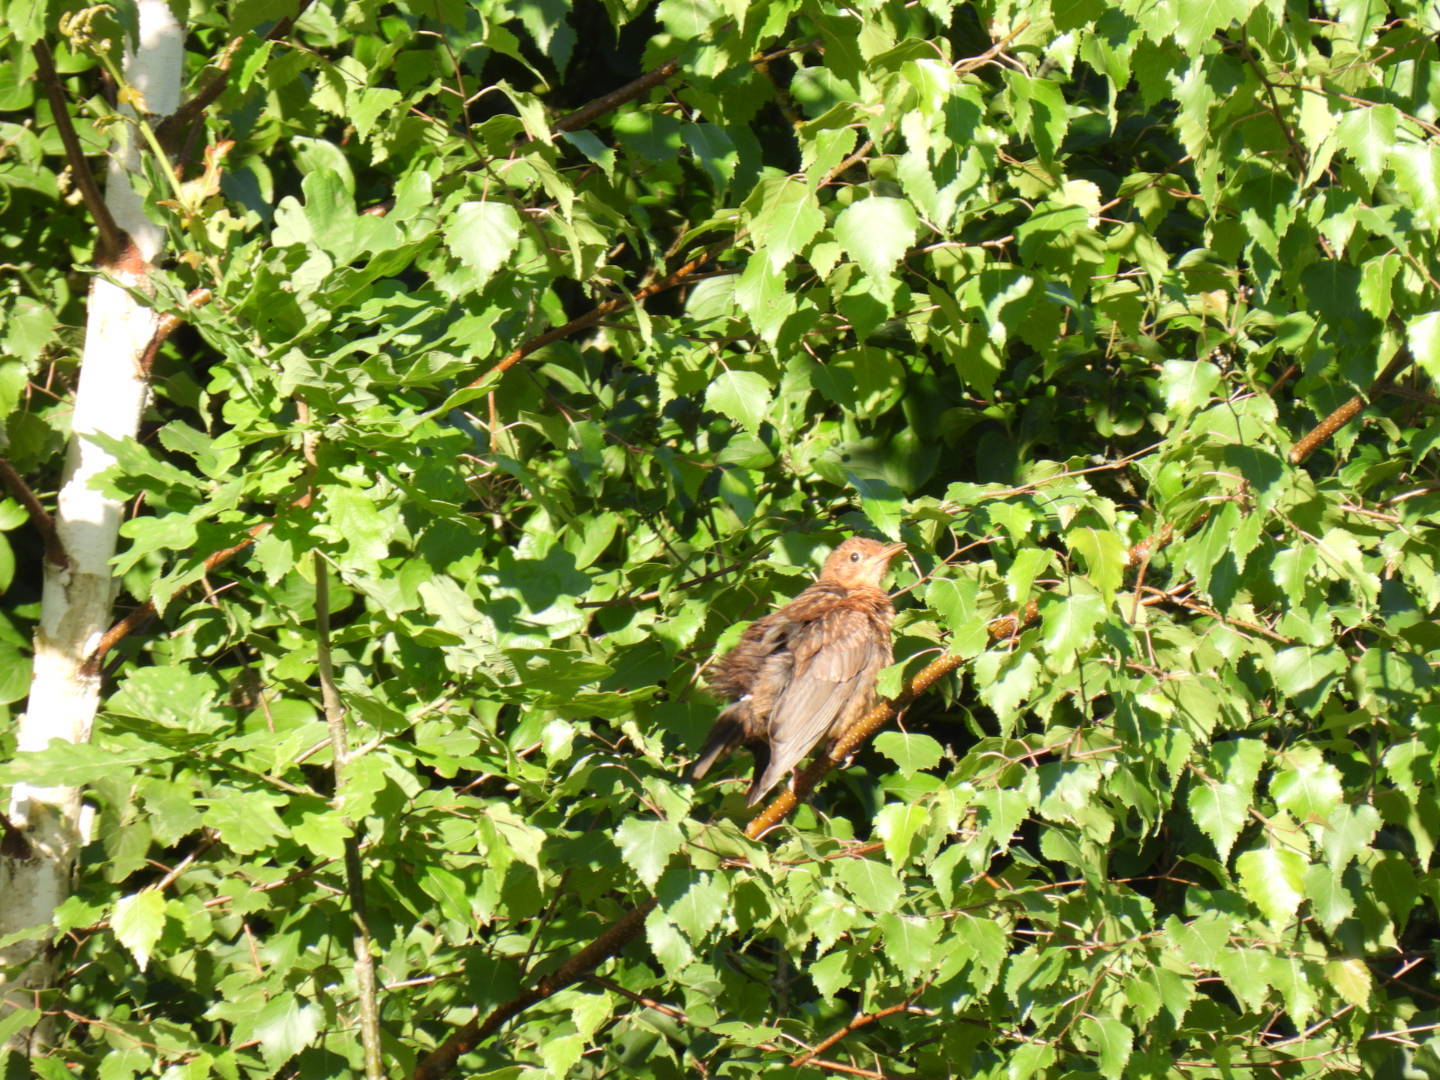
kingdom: Animalia
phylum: Chordata
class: Aves
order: Passeriformes
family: Turdidae
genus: Turdus
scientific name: Turdus merula
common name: Common blackbird
